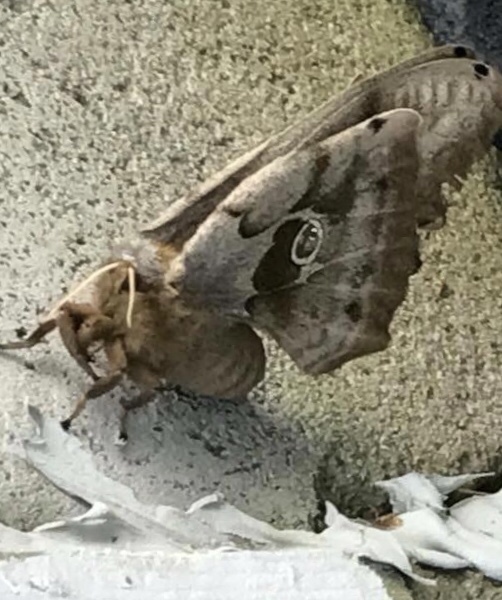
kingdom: Animalia
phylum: Arthropoda
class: Insecta
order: Lepidoptera
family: Saturniidae
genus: Antheraea
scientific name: Antheraea polyphemus
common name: Polyphemus moth
